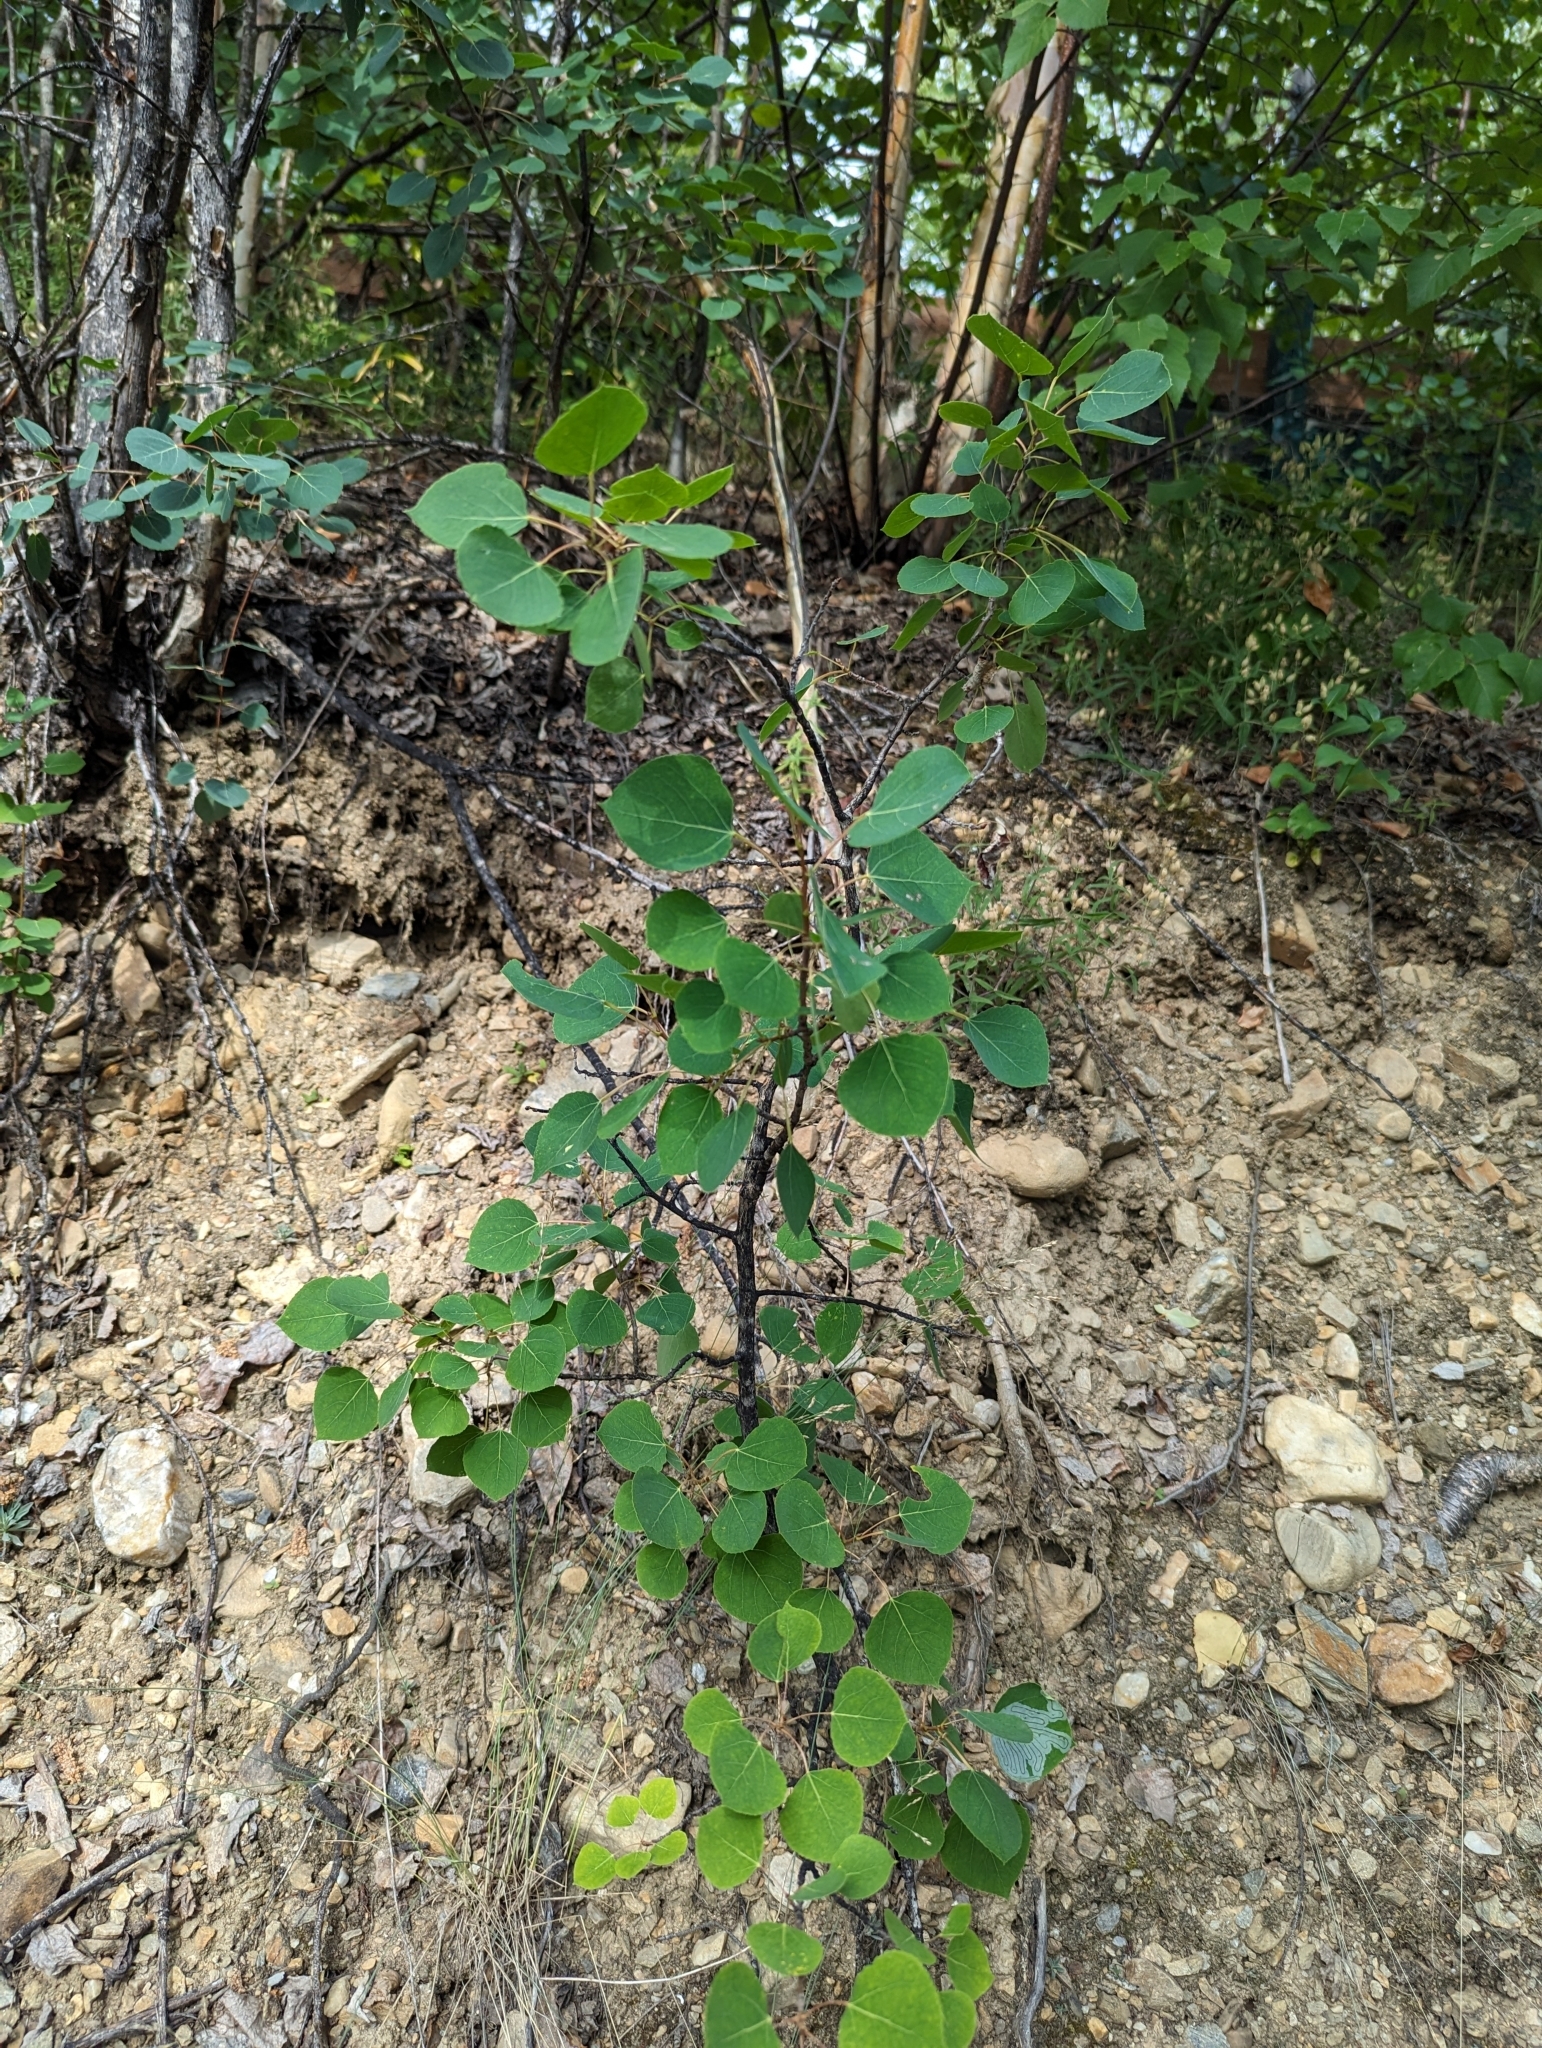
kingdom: Plantae
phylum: Tracheophyta
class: Magnoliopsida
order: Malpighiales
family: Salicaceae
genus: Populus
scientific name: Populus tremuloides
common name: Quaking aspen
